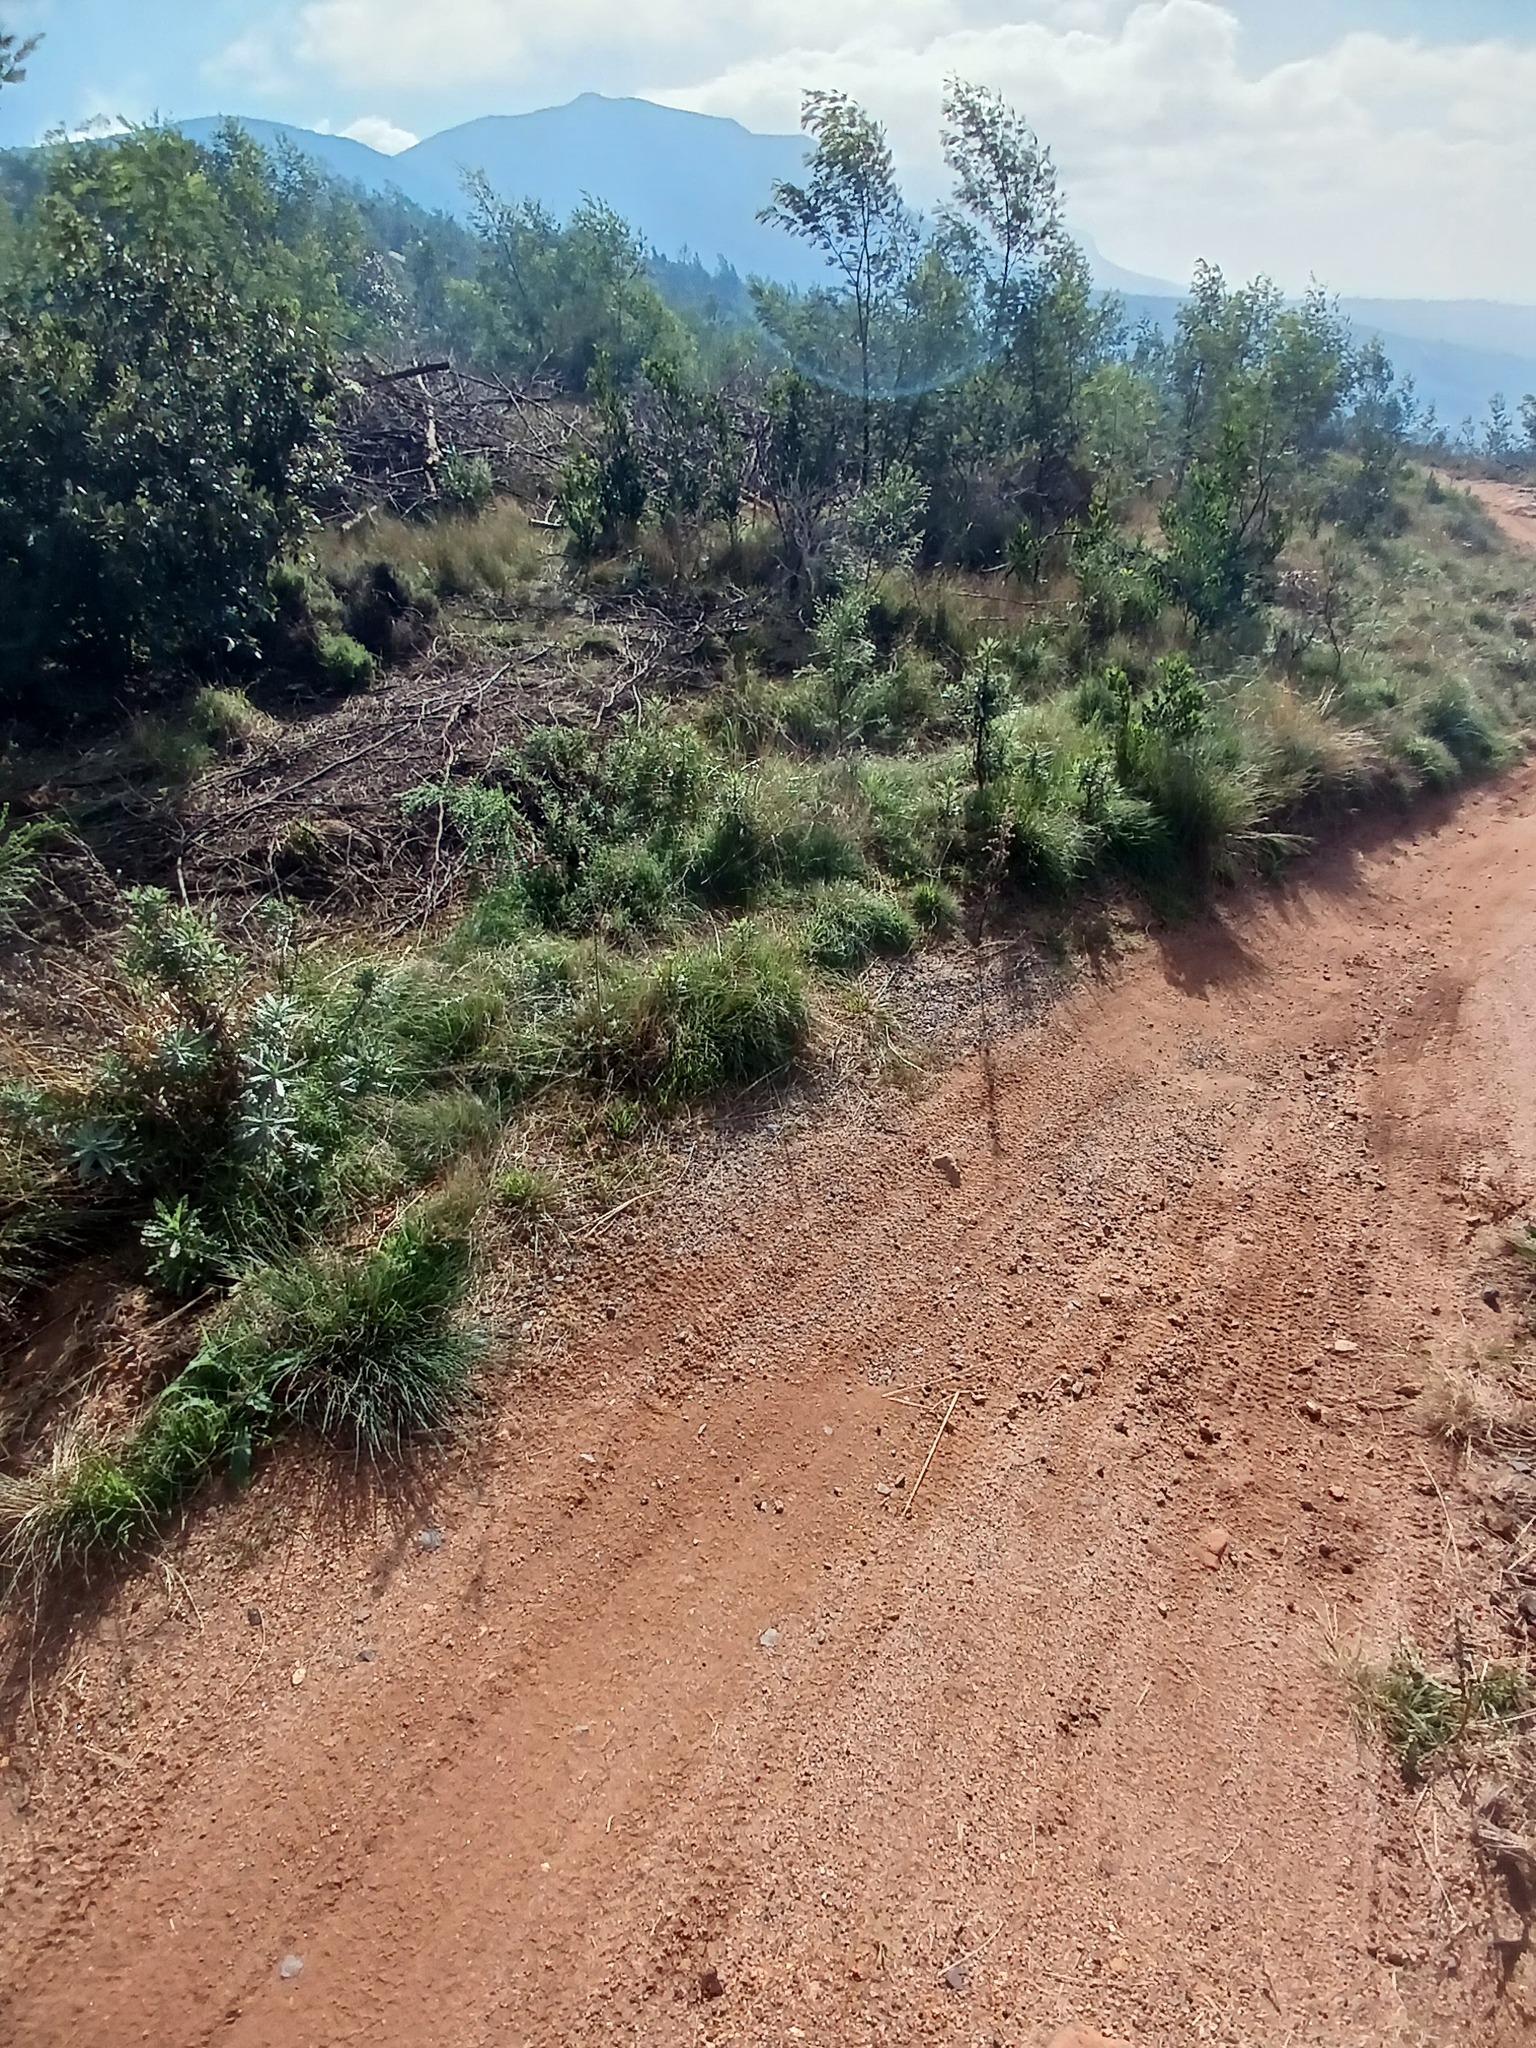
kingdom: Plantae
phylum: Tracheophyta
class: Magnoliopsida
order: Asterales
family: Asteraceae
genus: Senecio
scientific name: Senecio pterophorus
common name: Shoddy ragwort
